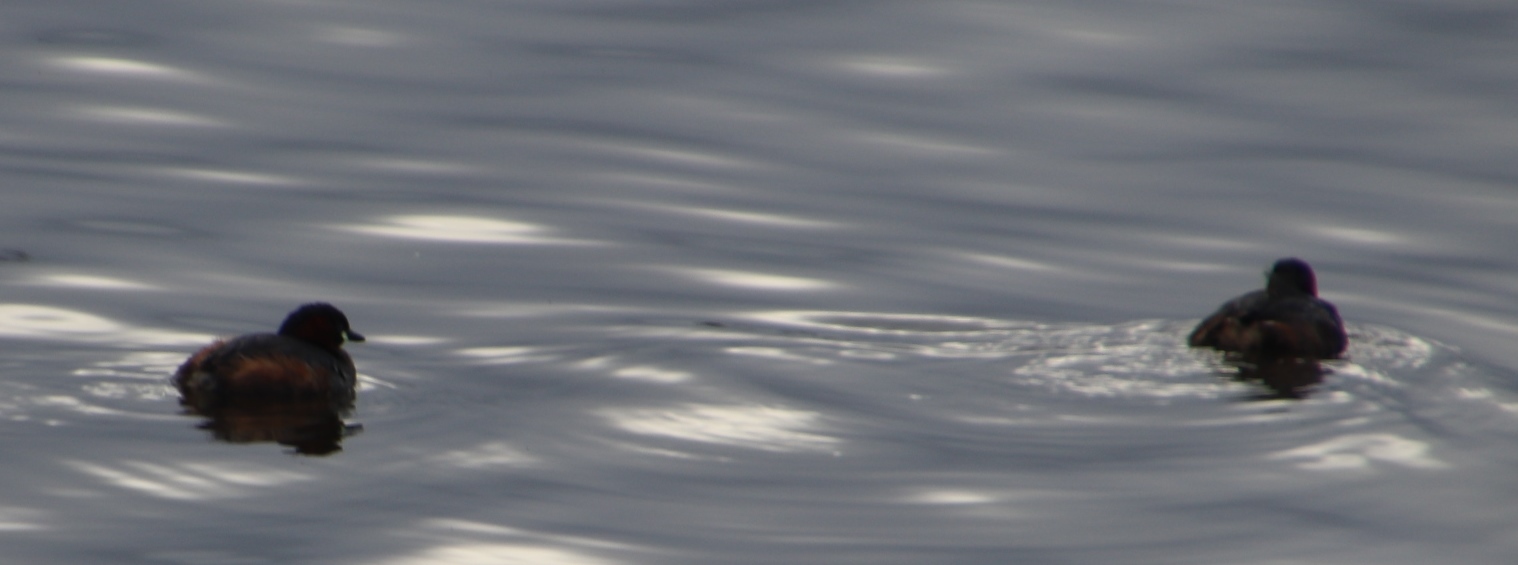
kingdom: Animalia
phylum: Chordata
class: Aves
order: Podicipediformes
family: Podicipedidae
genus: Tachybaptus
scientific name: Tachybaptus ruficollis
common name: Little grebe
